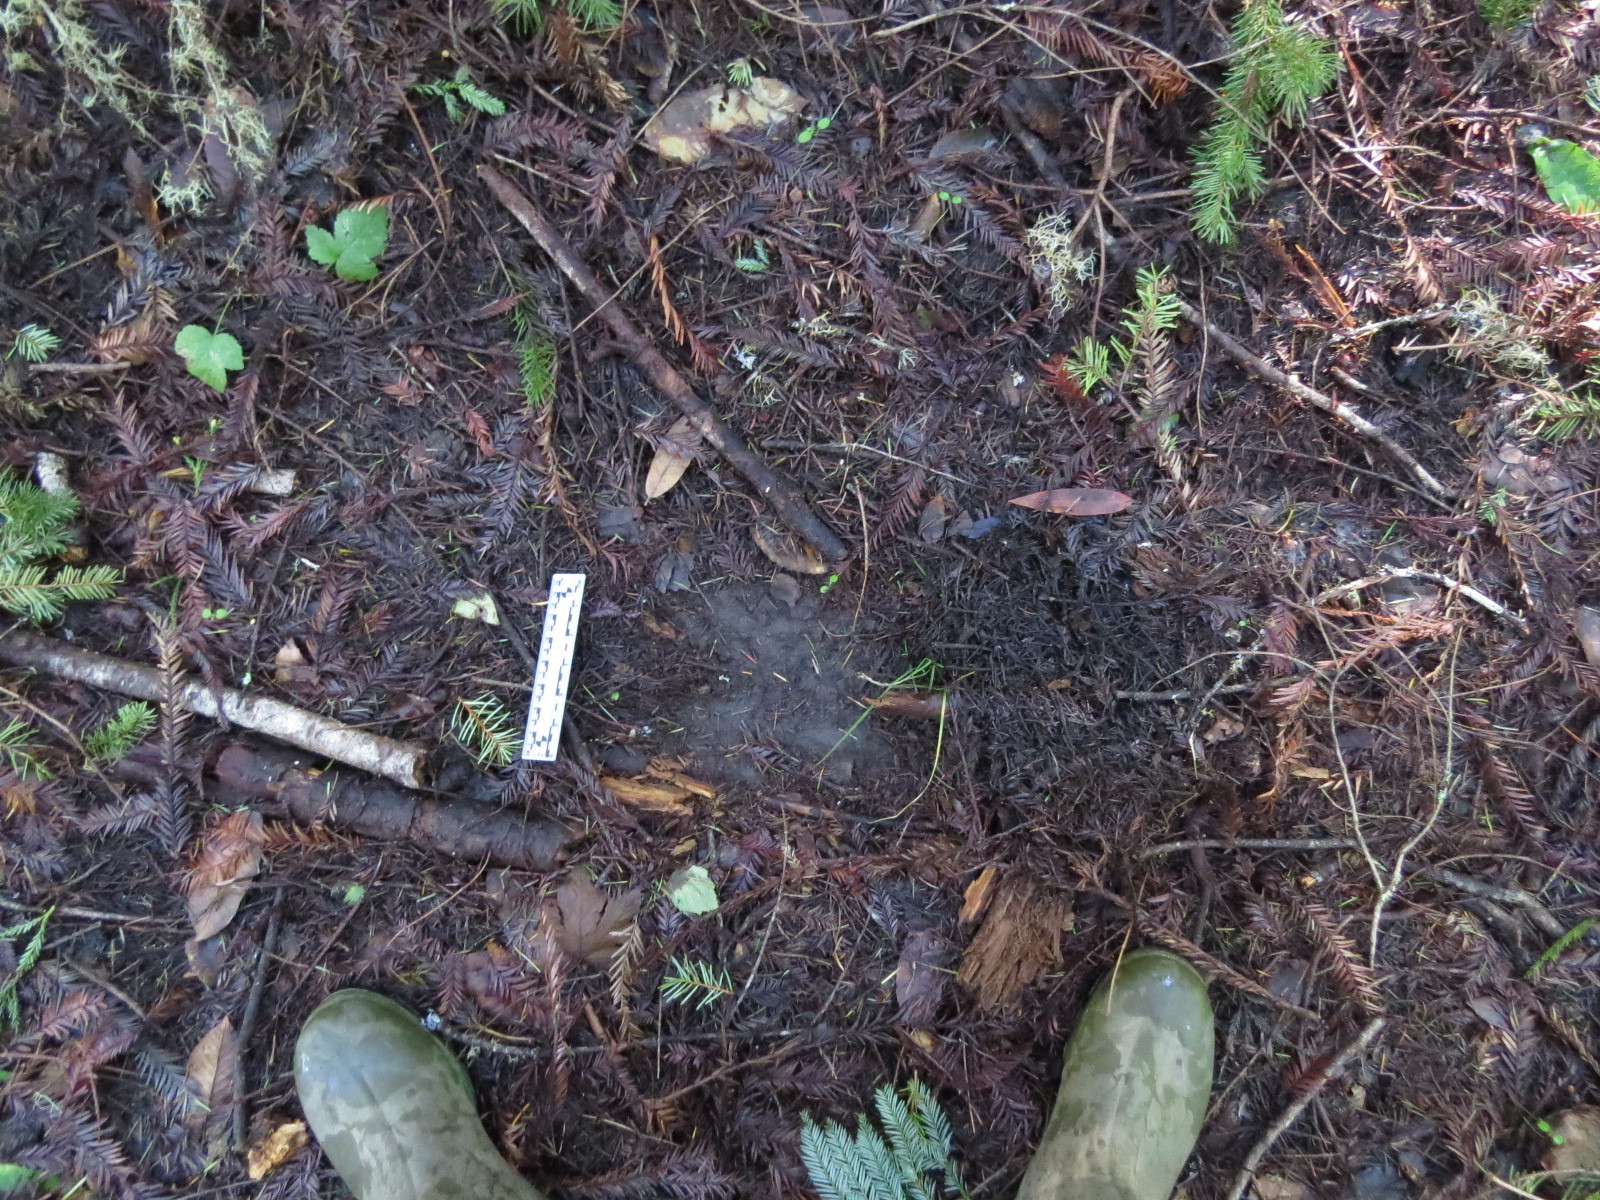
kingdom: Animalia
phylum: Chordata
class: Mammalia
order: Carnivora
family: Felidae
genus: Puma
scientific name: Puma concolor
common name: Puma
